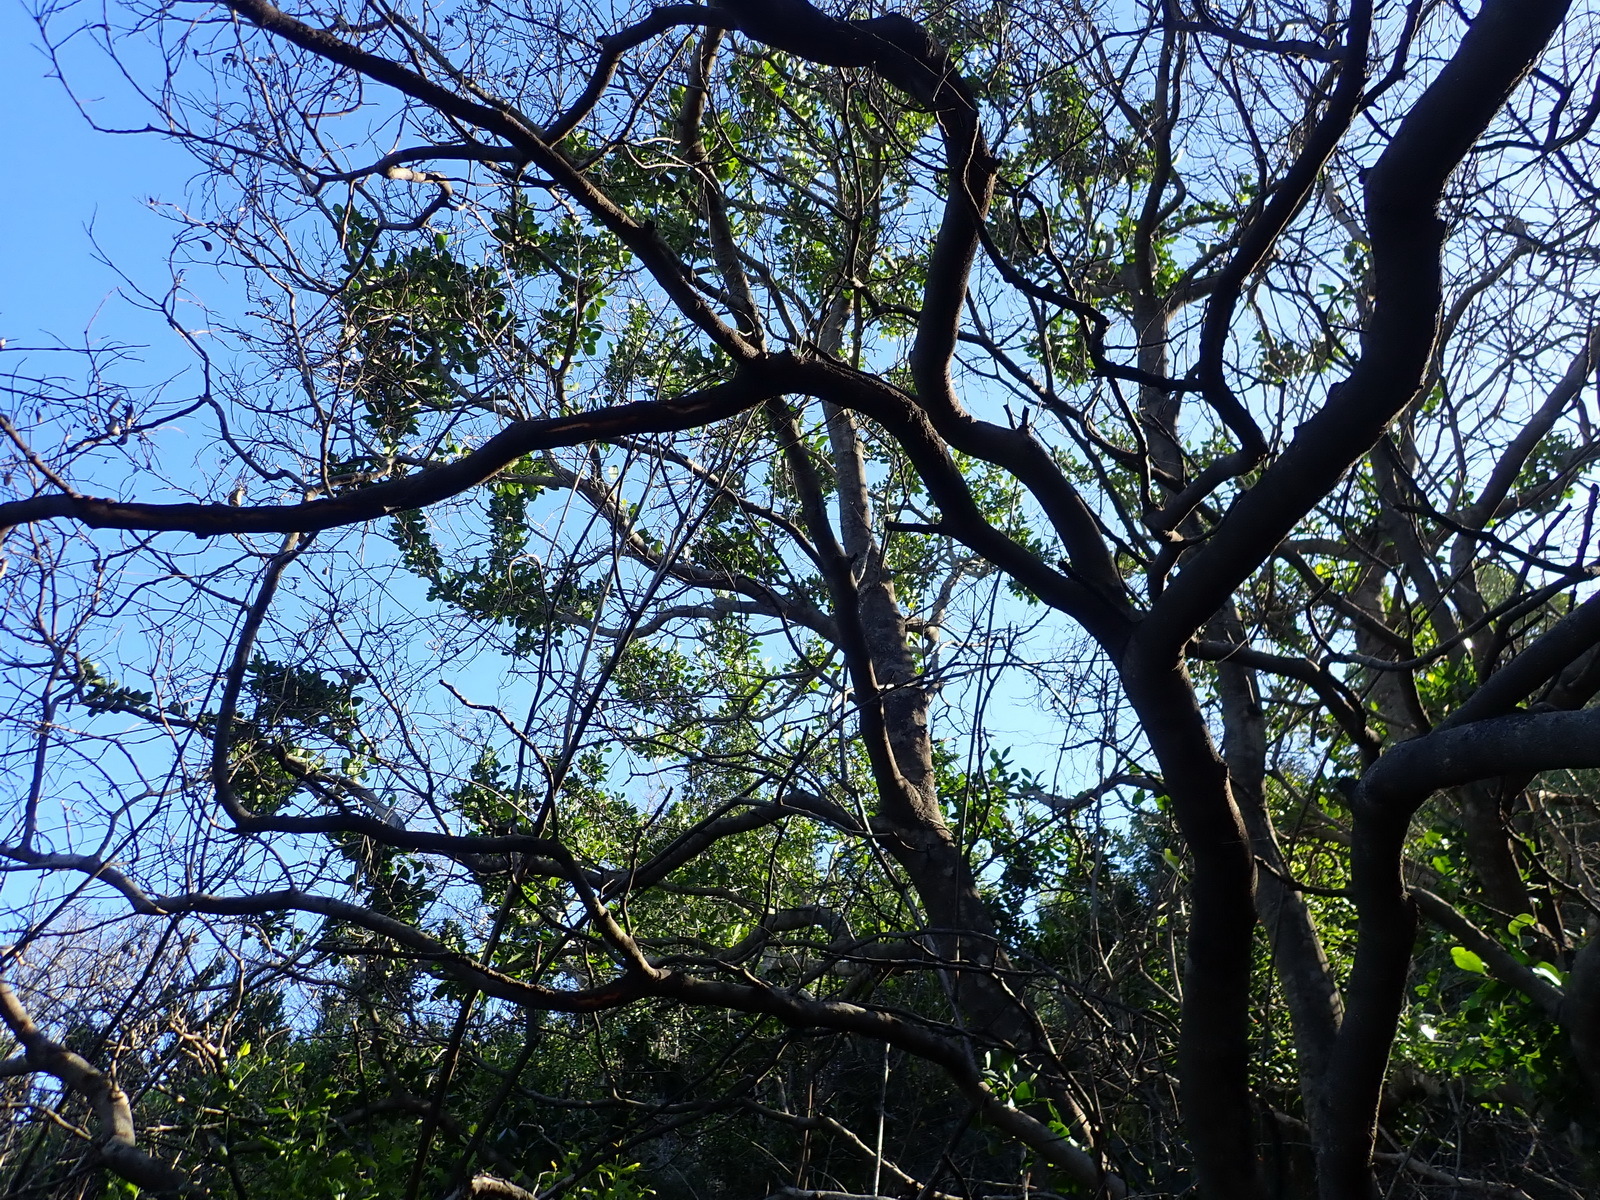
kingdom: Plantae
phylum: Tracheophyta
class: Magnoliopsida
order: Celastrales
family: Celastraceae
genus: Pterocelastrus
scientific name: Pterocelastrus tricuspidatus
